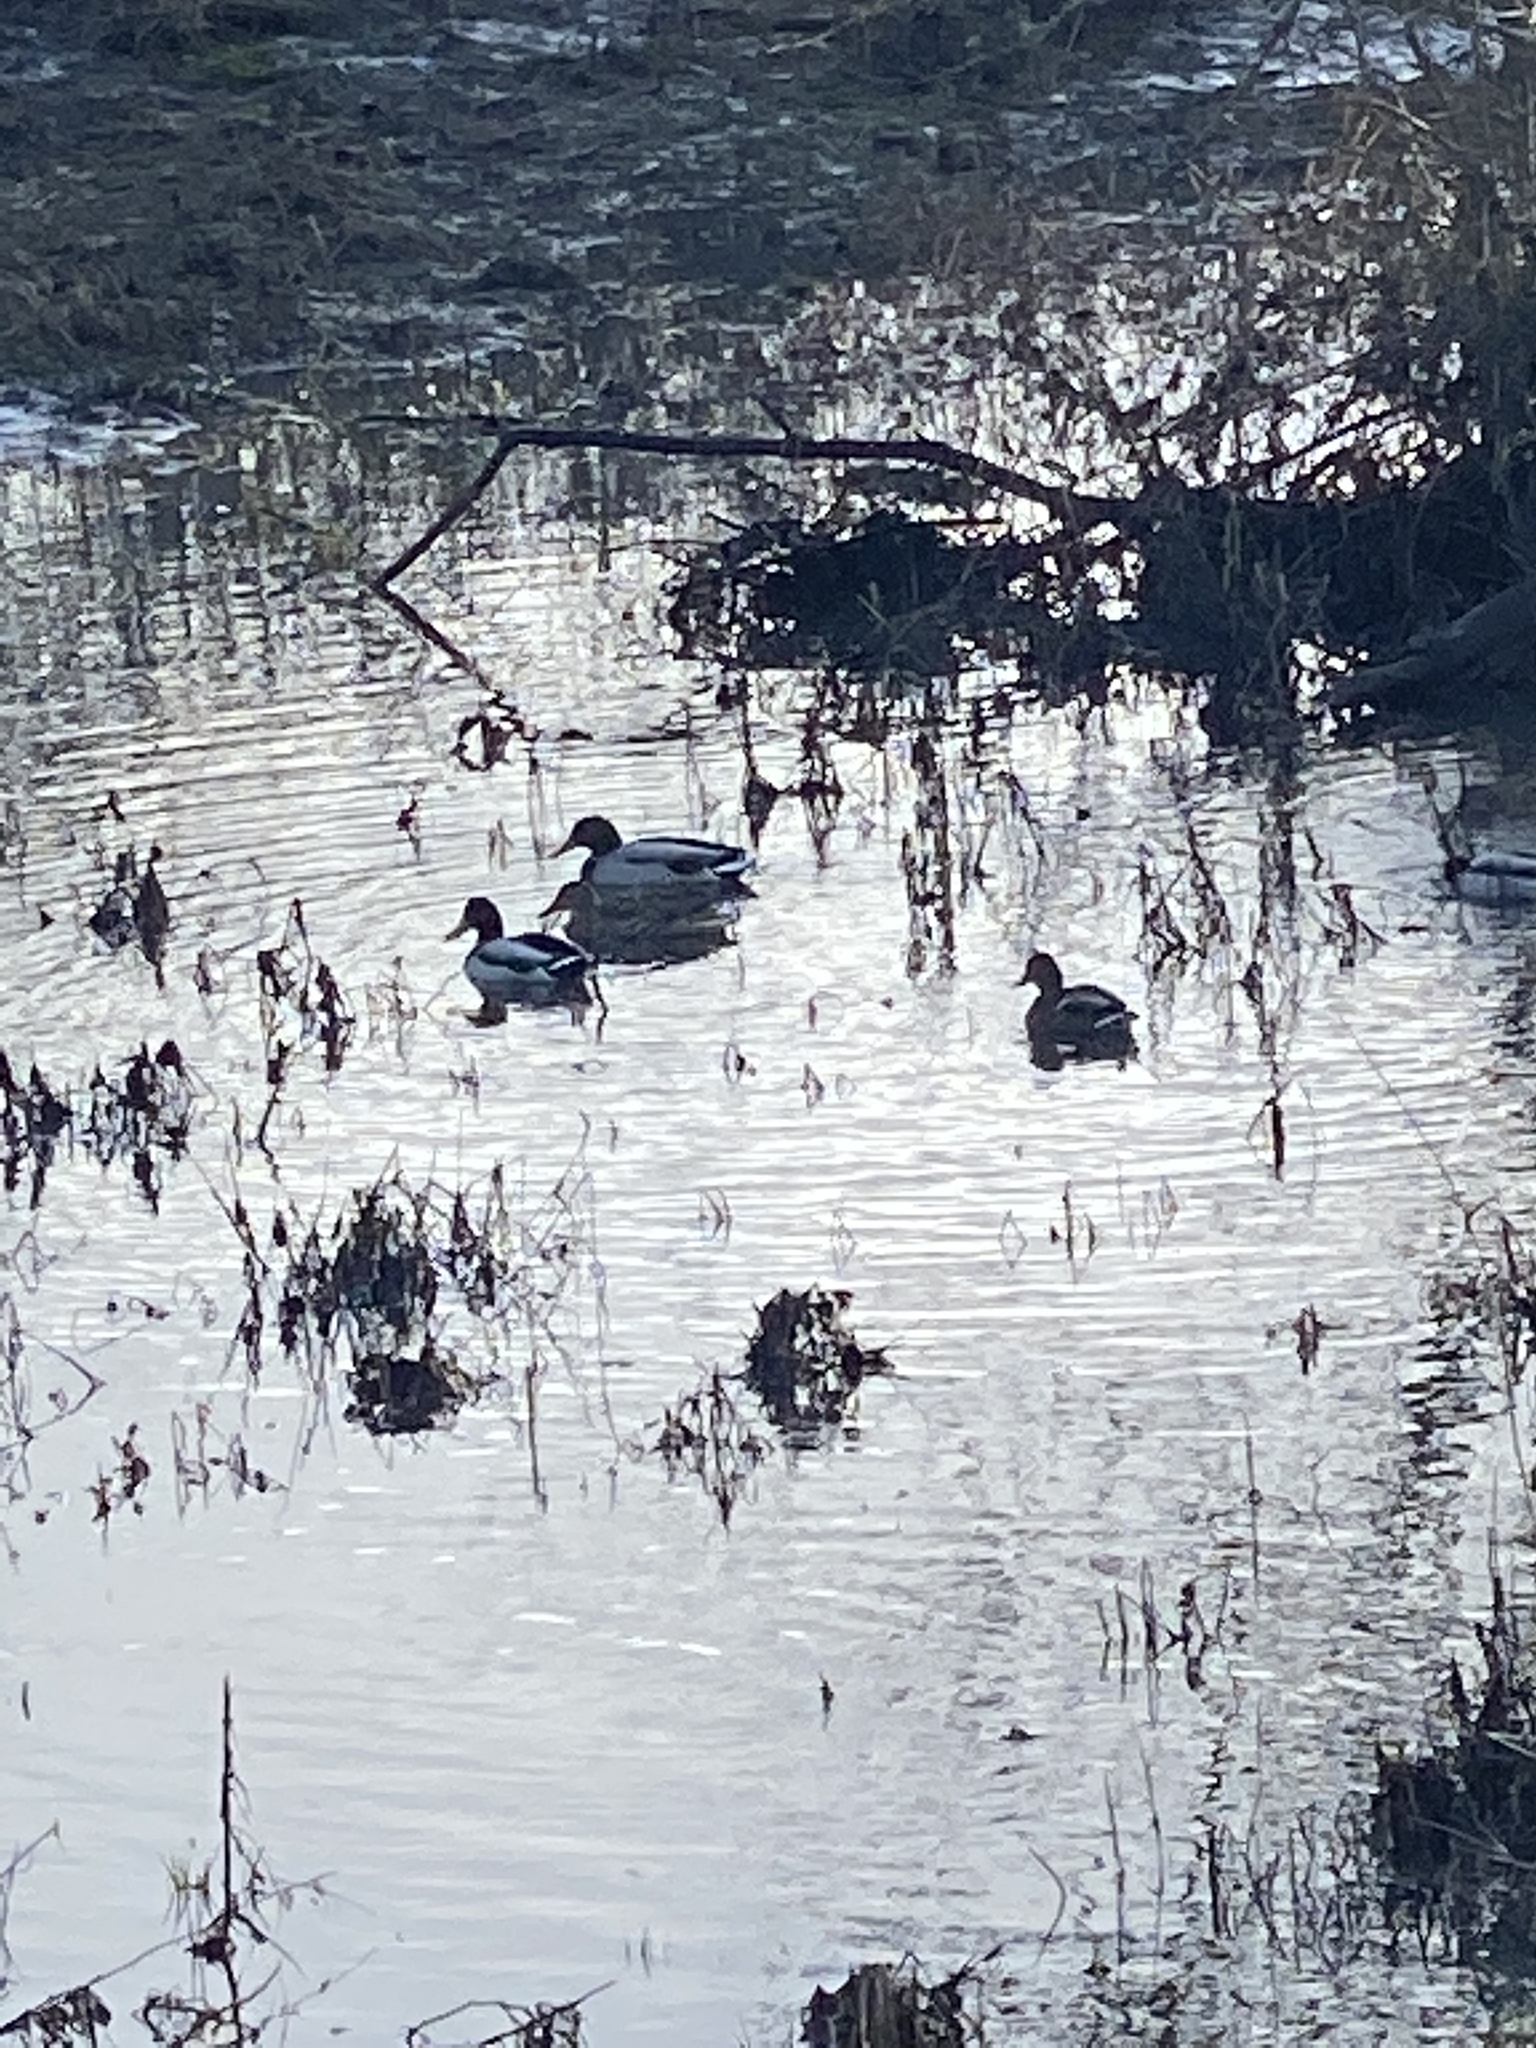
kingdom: Animalia
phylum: Chordata
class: Aves
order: Anseriformes
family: Anatidae
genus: Anas
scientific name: Anas platyrhynchos
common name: Mallard
